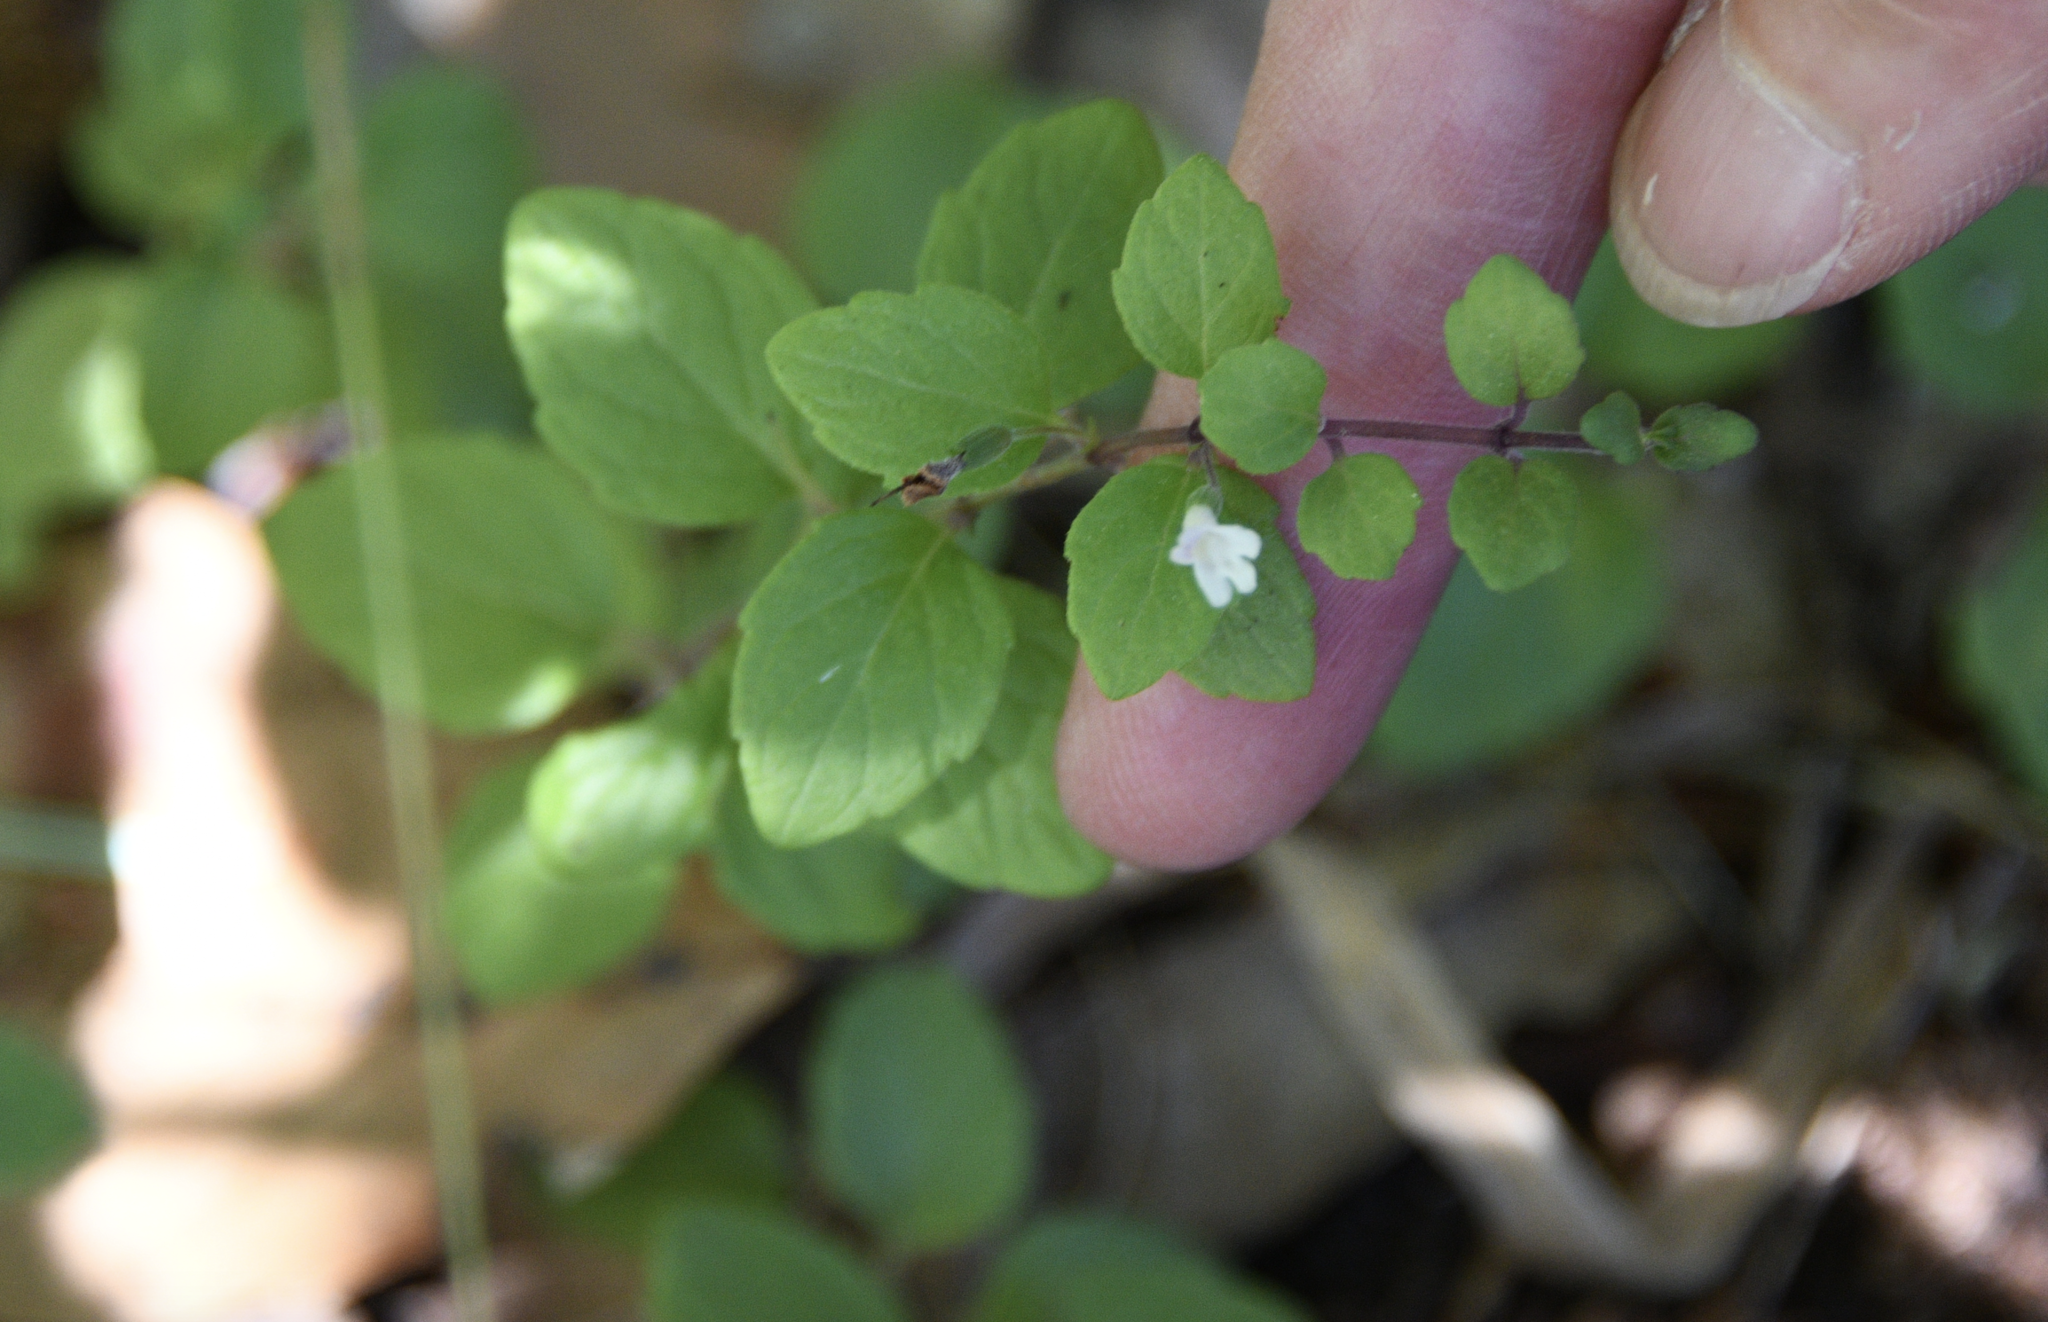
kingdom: Plantae
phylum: Tracheophyta
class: Magnoliopsida
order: Lamiales
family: Lamiaceae
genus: Micromeria
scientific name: Micromeria douglasii
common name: Yerba buena
